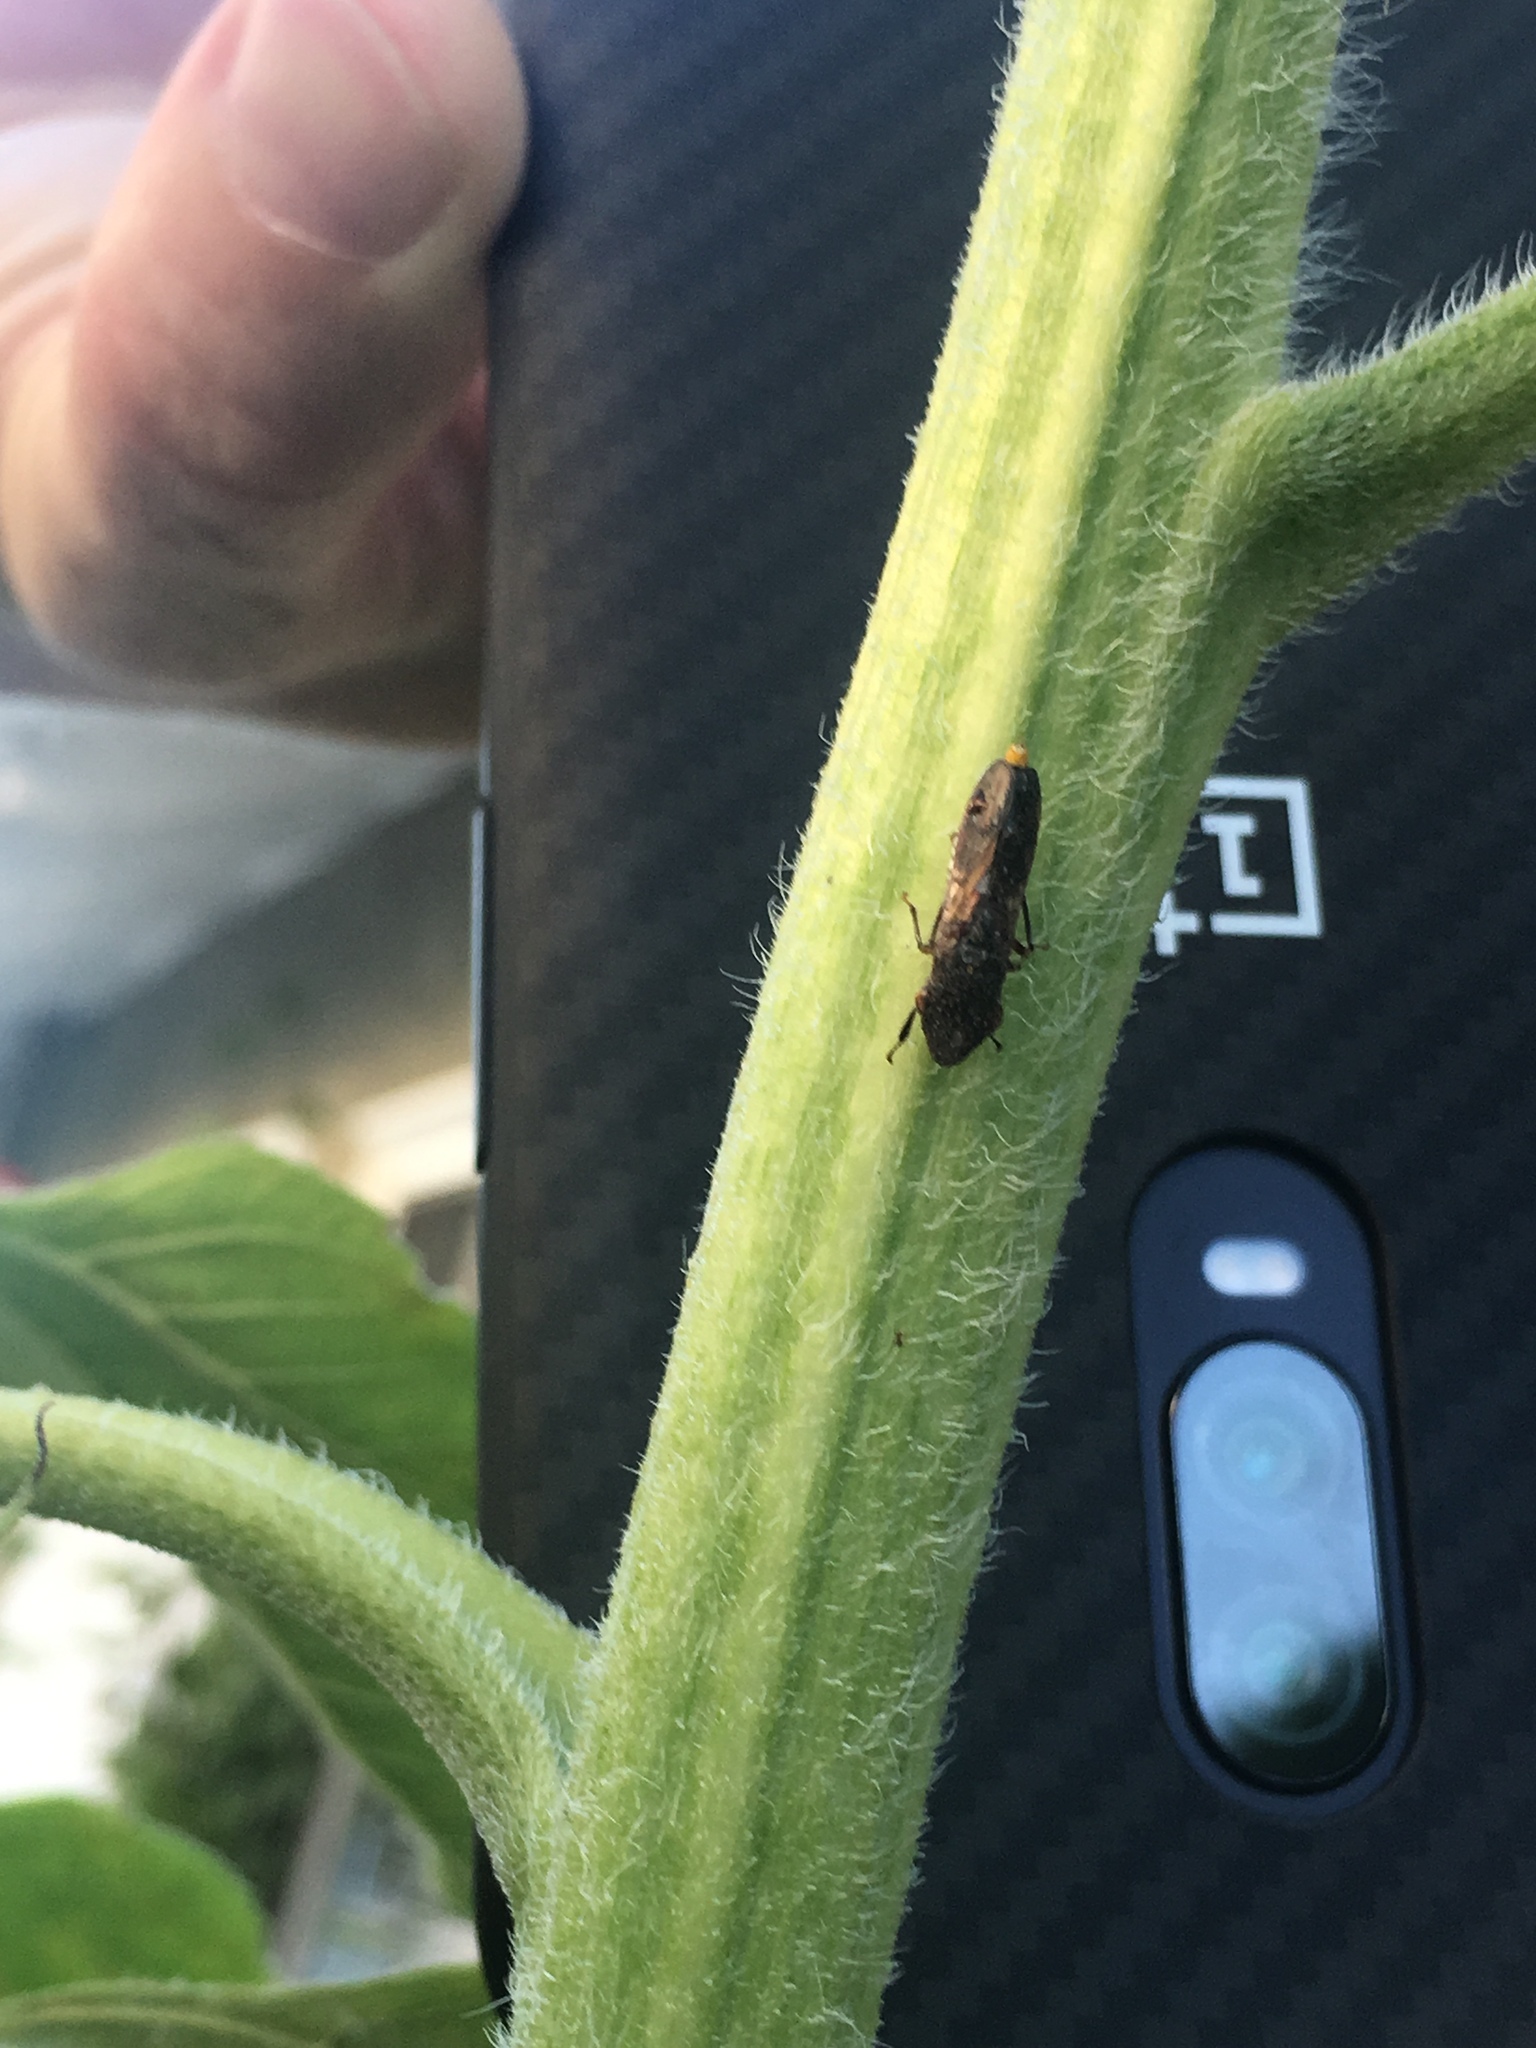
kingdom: Animalia
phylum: Arthropoda
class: Insecta
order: Hemiptera
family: Cicadellidae
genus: Homalodisca
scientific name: Homalodisca vitripennis
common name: Glassy-winged sharpshooter
